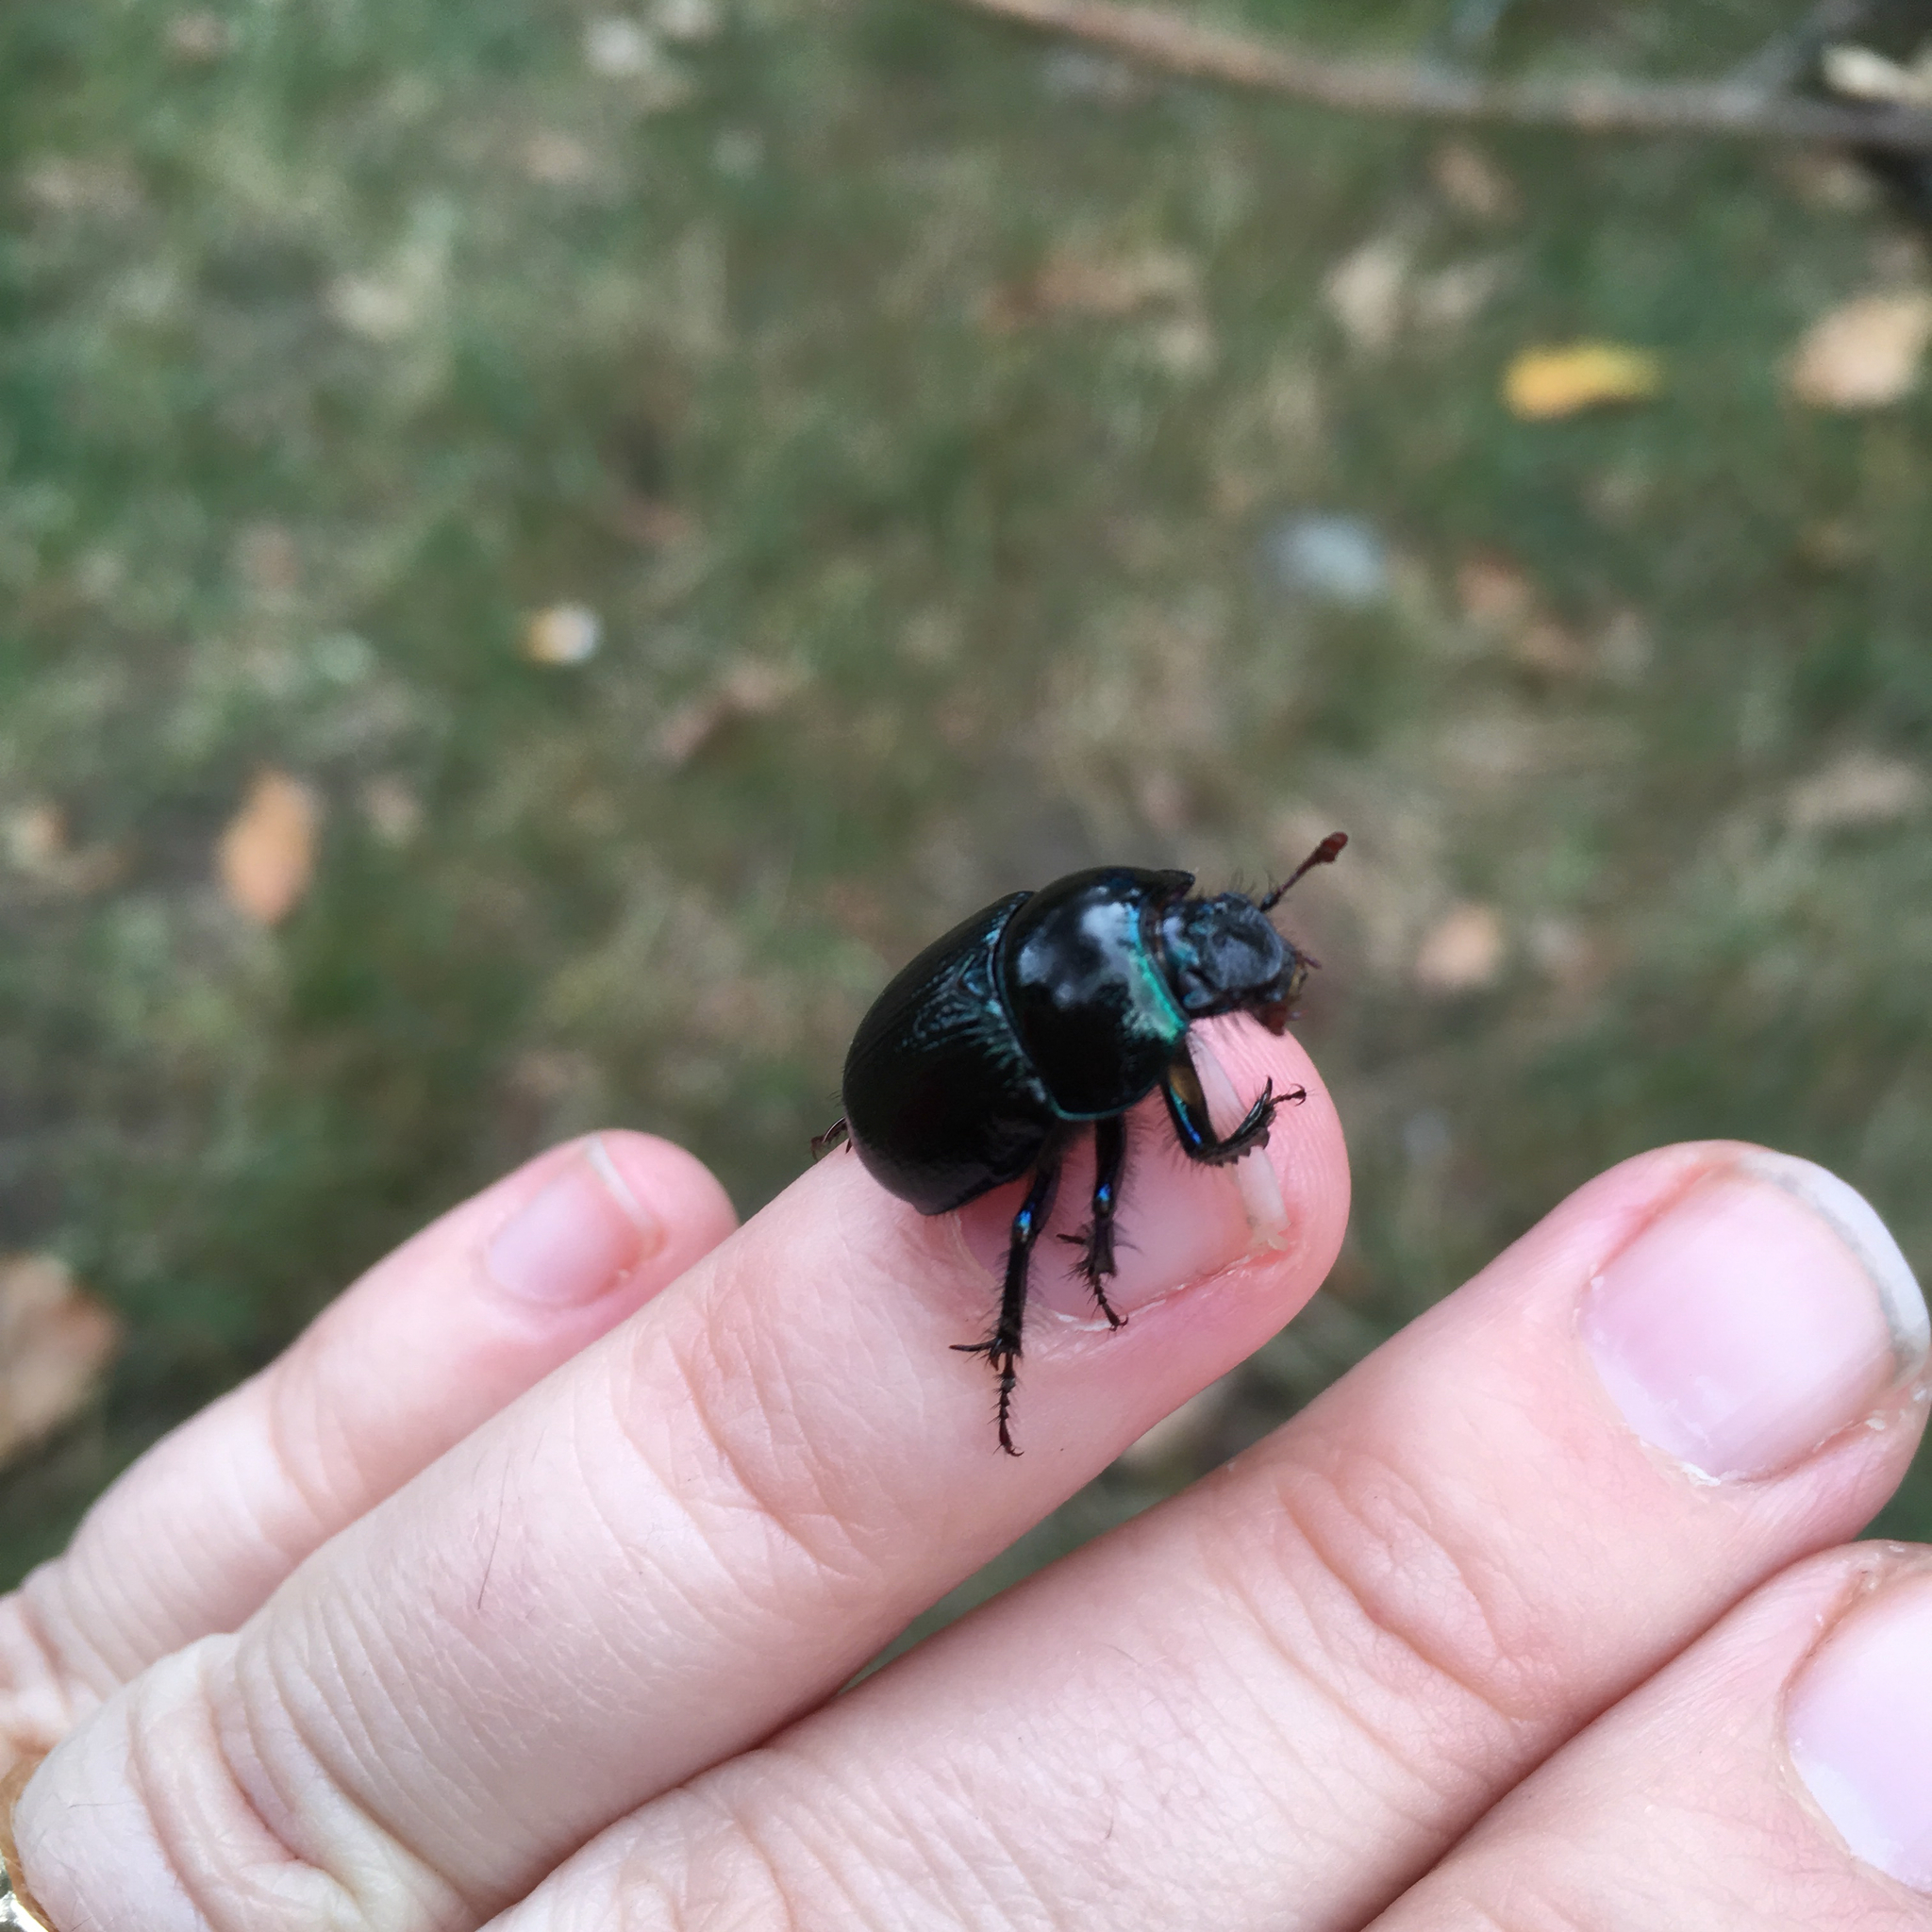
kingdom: Animalia
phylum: Arthropoda
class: Insecta
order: Coleoptera
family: Geotrupidae
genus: Anoplotrupes
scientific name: Anoplotrupes stercorosus
